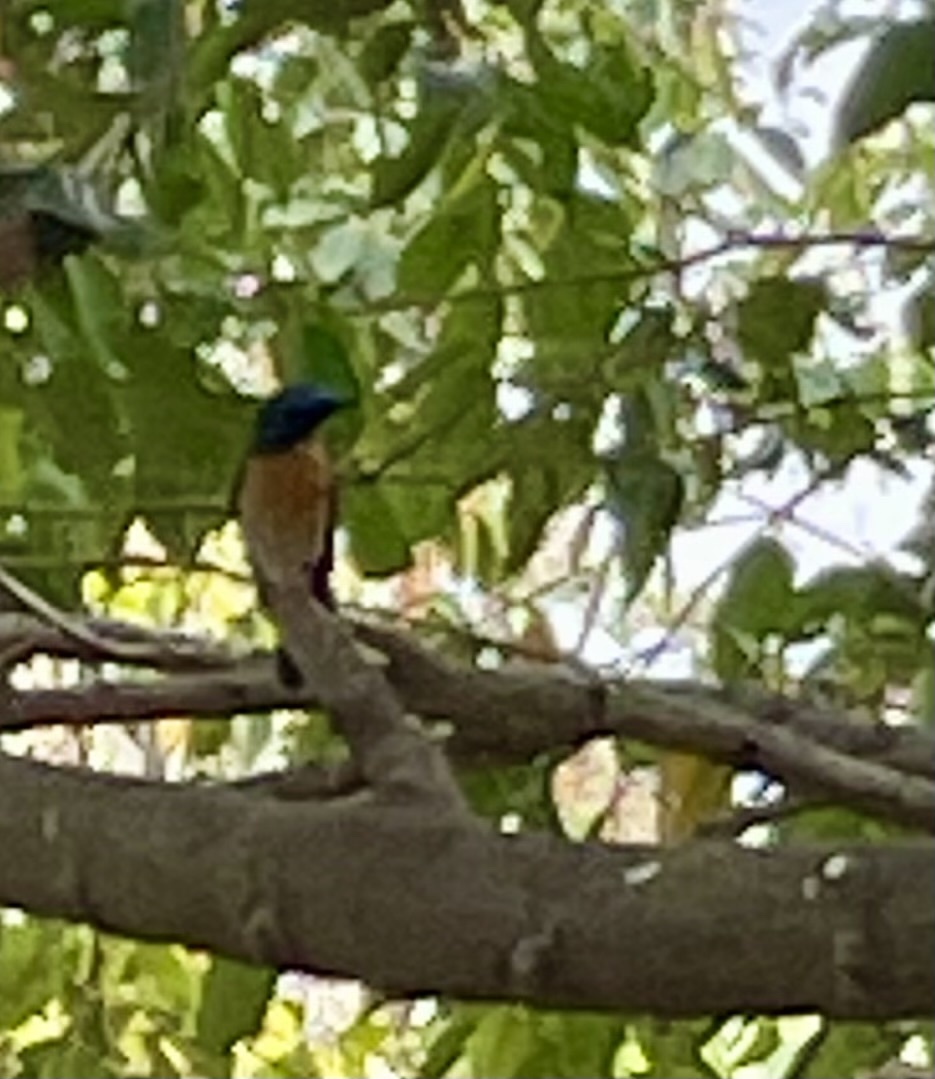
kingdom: Animalia
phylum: Chordata
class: Aves
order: Passeriformes
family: Muscicapidae
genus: Cyornis
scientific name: Cyornis tickelliae
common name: Tickell's blue flycatcher
